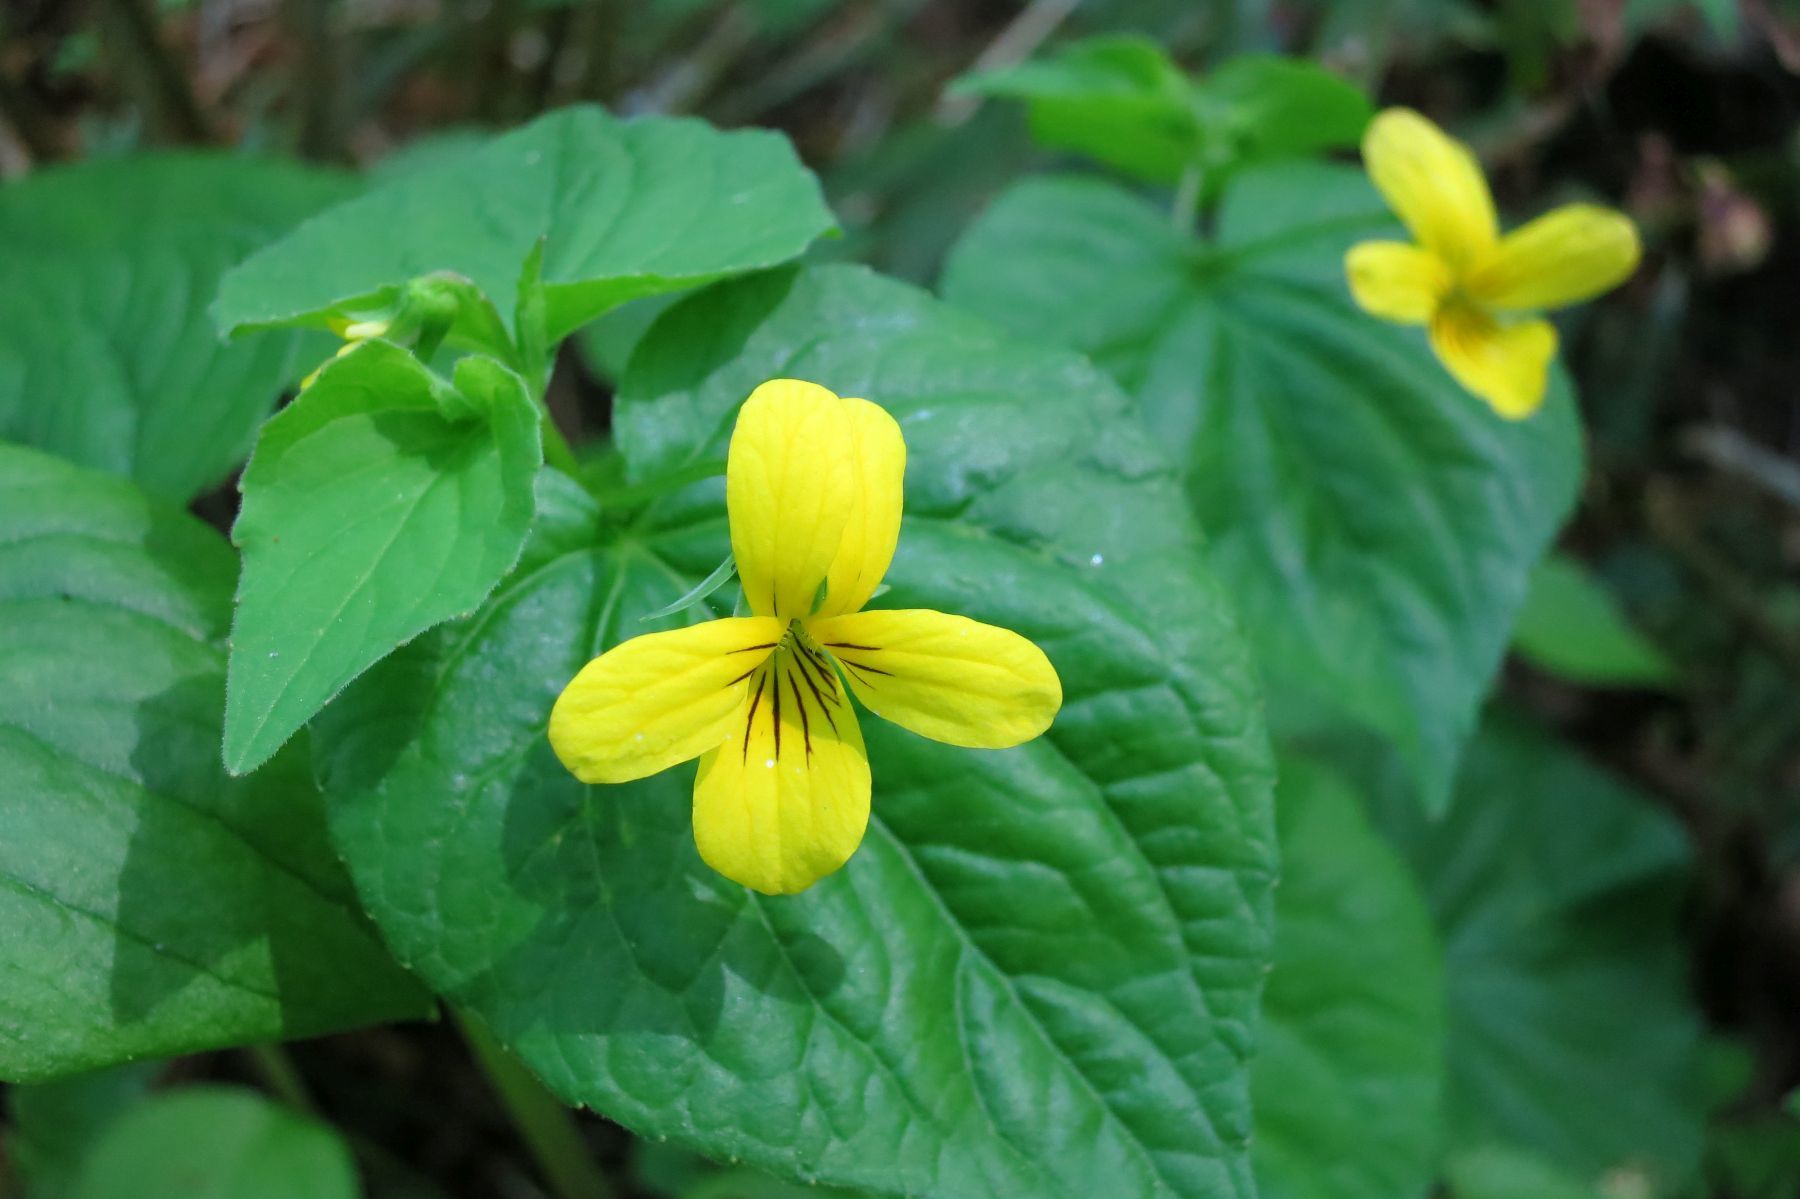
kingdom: Plantae
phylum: Tracheophyta
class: Magnoliopsida
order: Malpighiales
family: Violaceae
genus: Viola
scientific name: Viola glabella
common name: Stream violet
